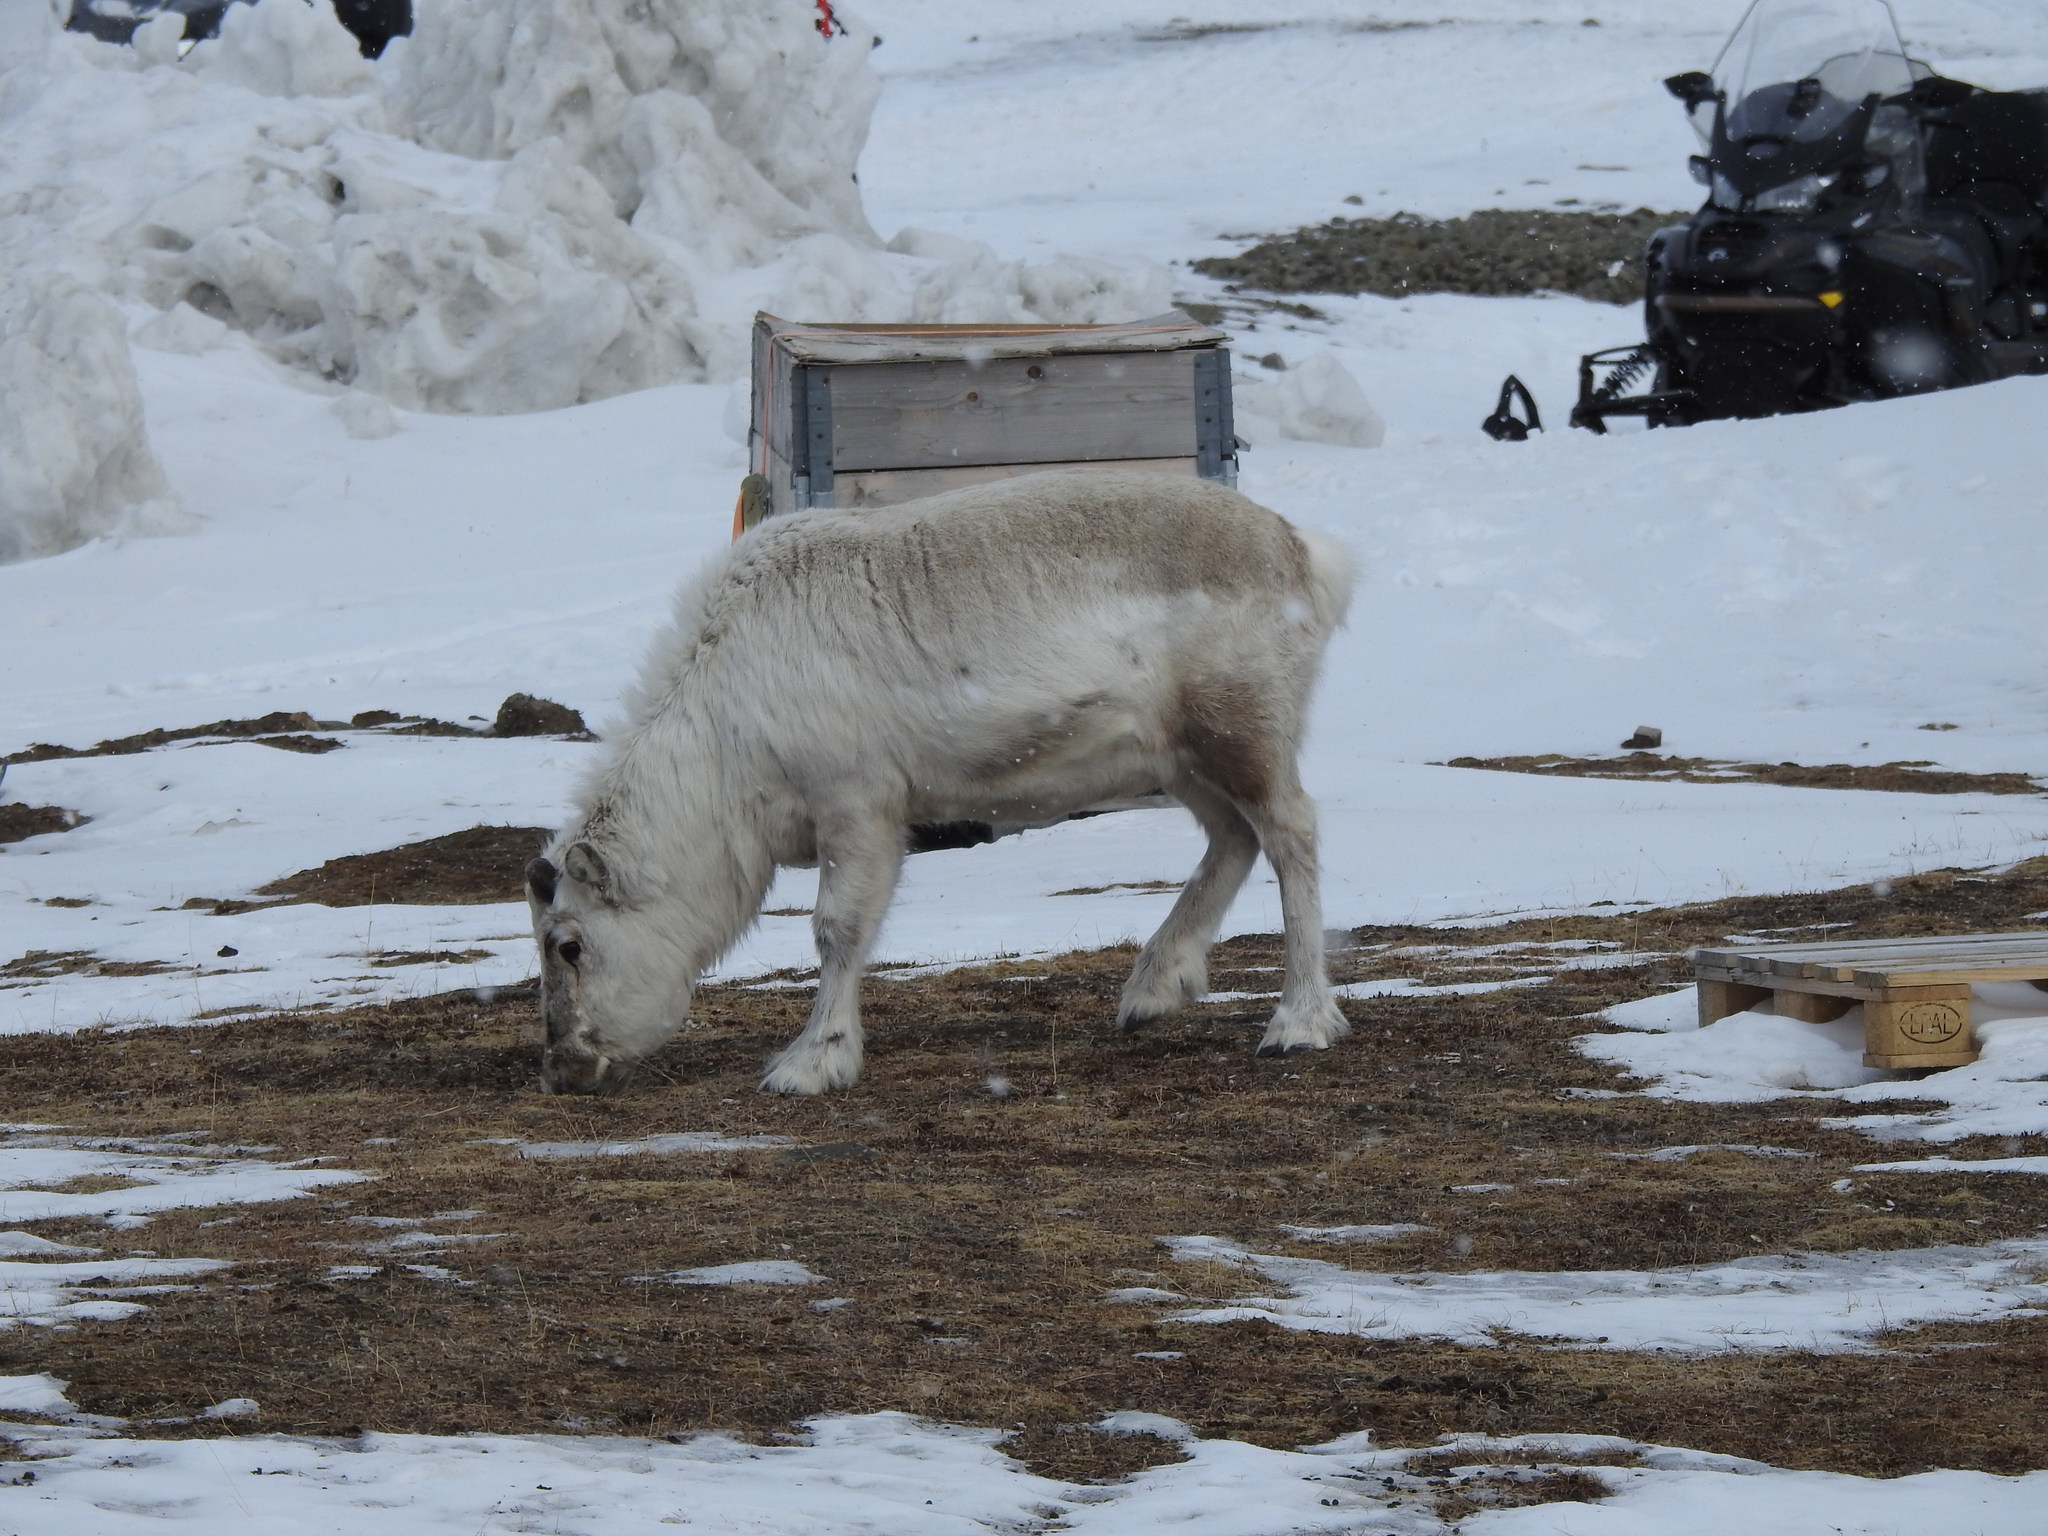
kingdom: Animalia
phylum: Chordata
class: Mammalia
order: Artiodactyla
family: Cervidae
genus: Rangifer
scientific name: Rangifer tarandus
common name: Reindeer
